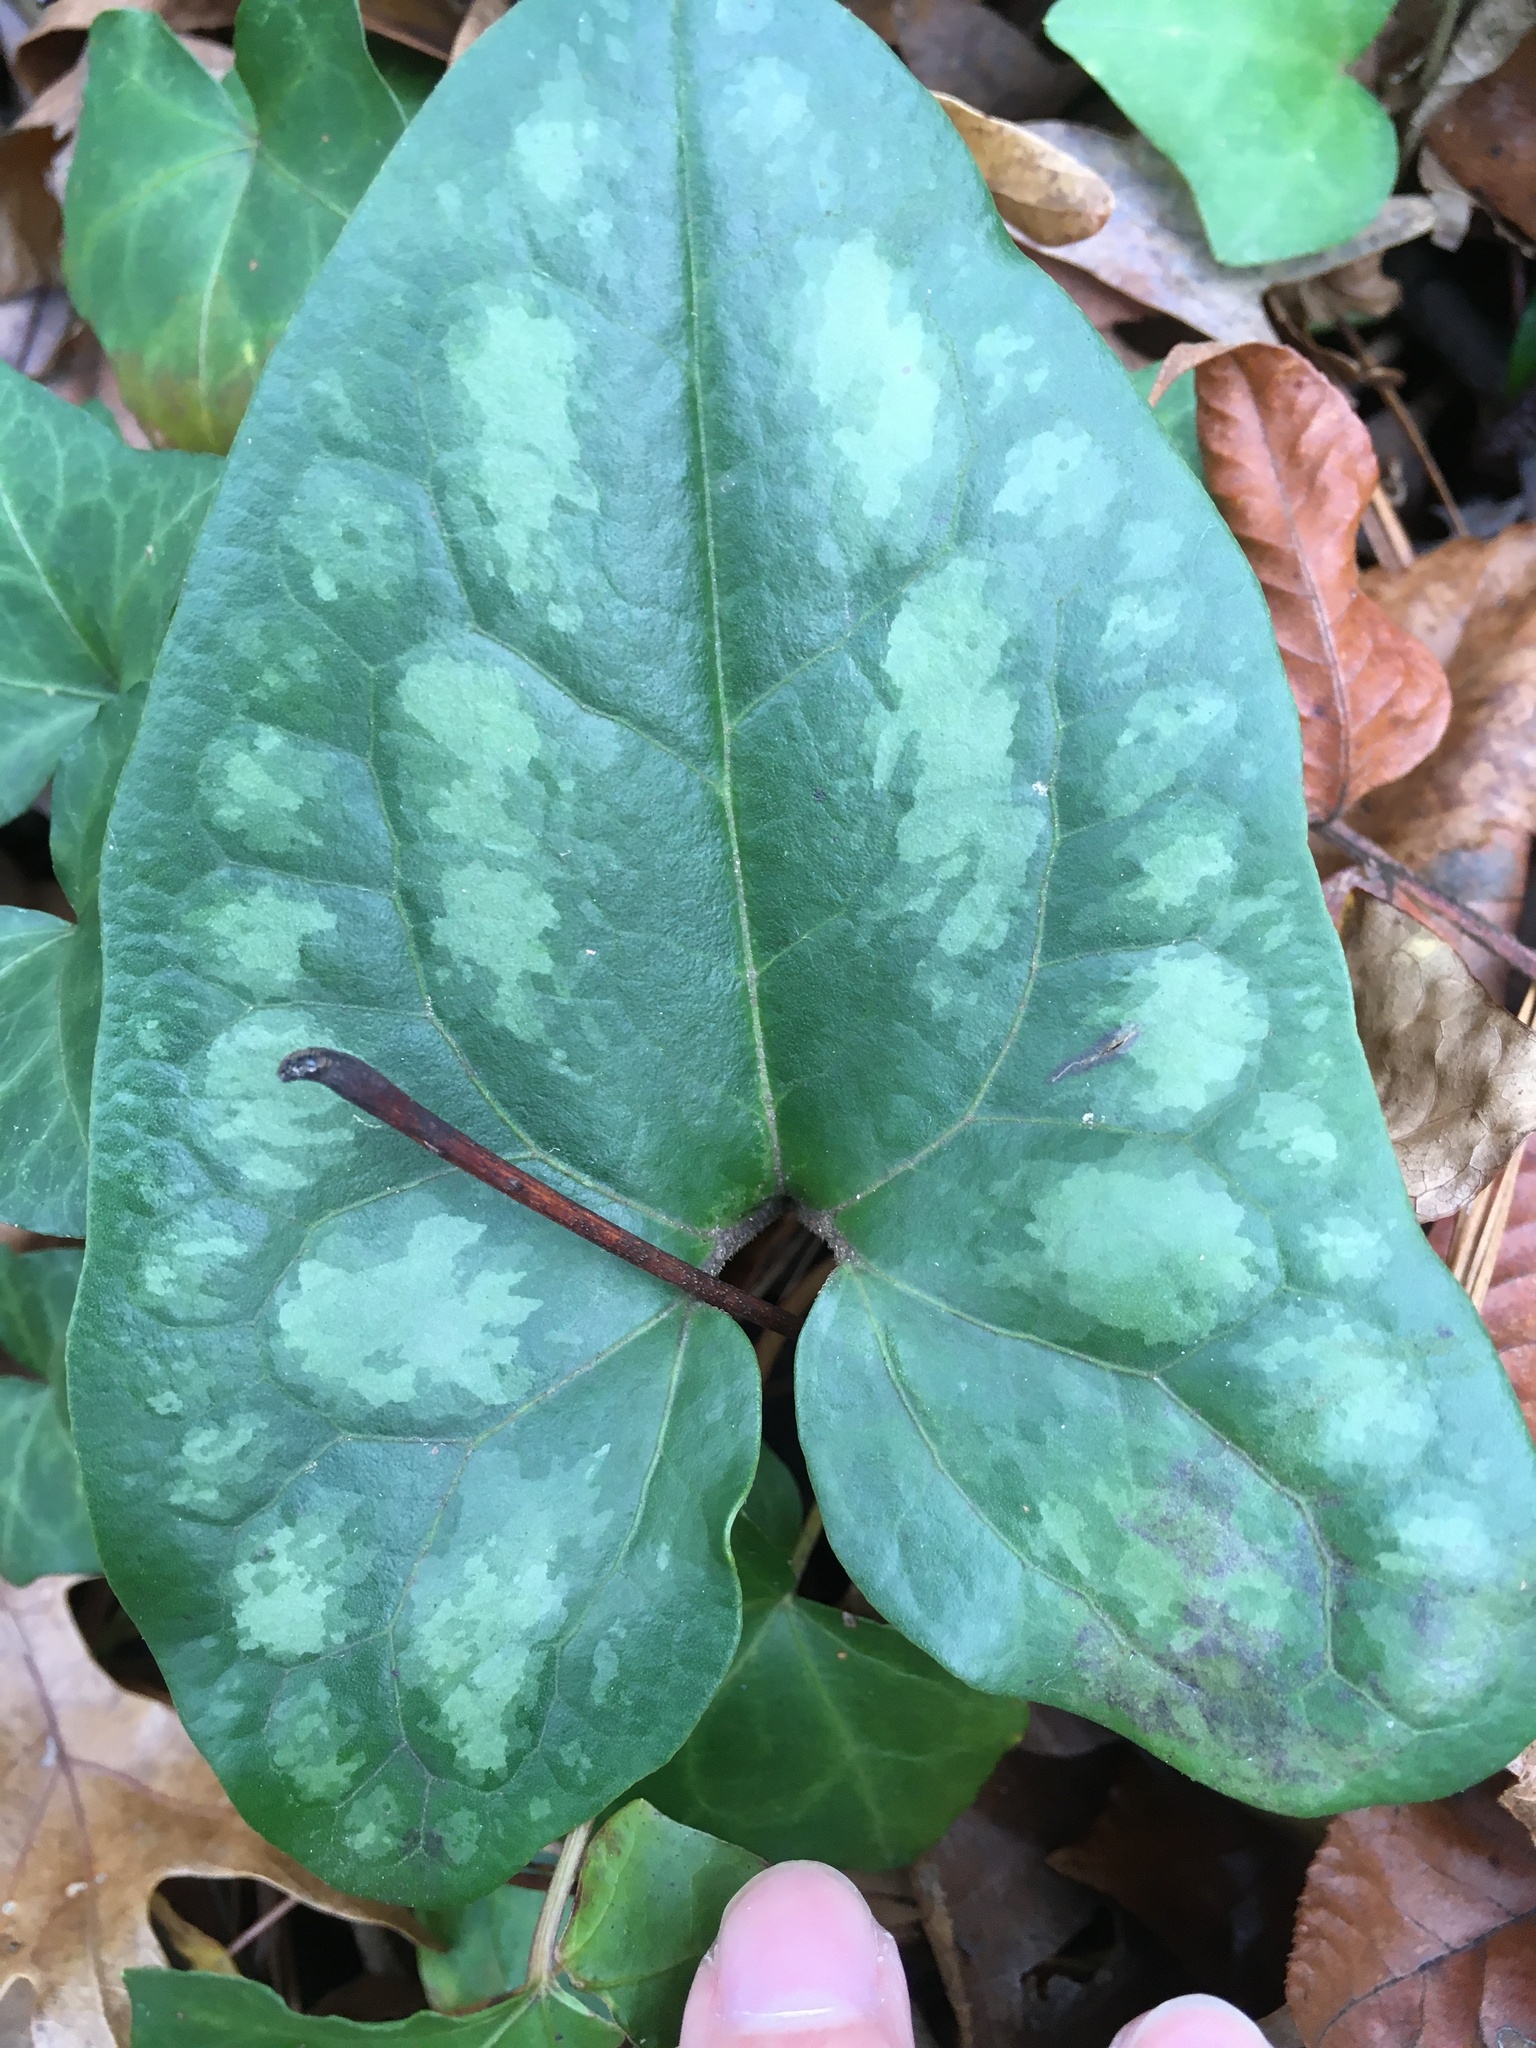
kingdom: Plantae
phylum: Tracheophyta
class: Magnoliopsida
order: Piperales
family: Aristolochiaceae
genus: Hexastylis
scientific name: Hexastylis arifolia
